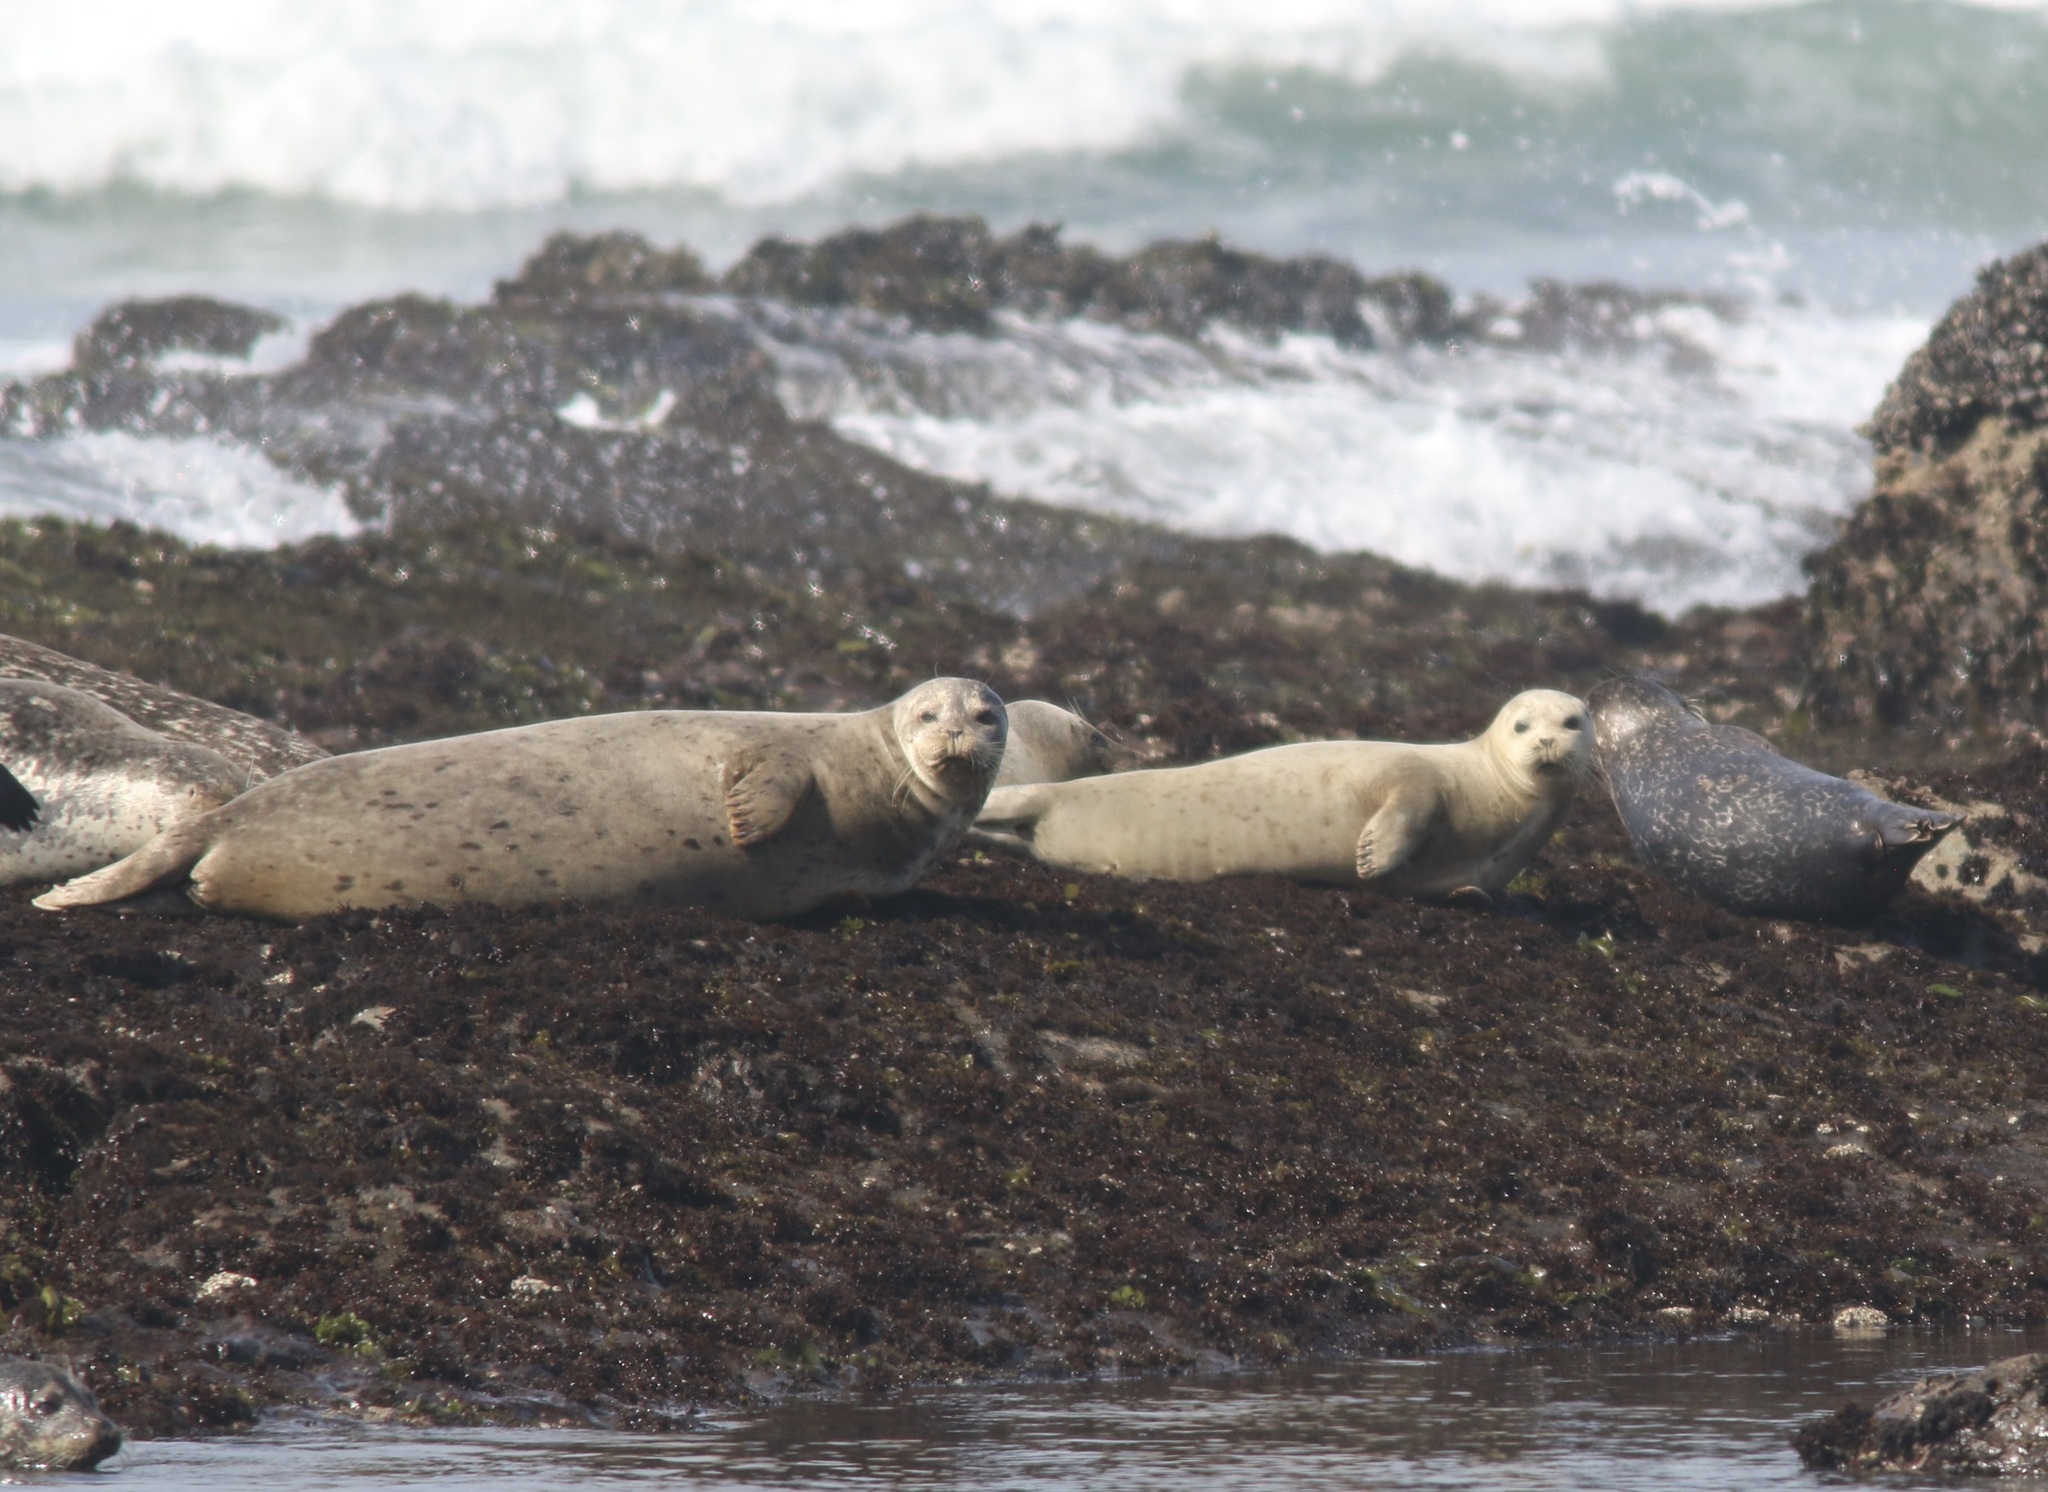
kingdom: Animalia
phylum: Chordata
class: Mammalia
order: Carnivora
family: Phocidae
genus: Phoca
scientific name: Phoca vitulina
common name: Harbor seal
